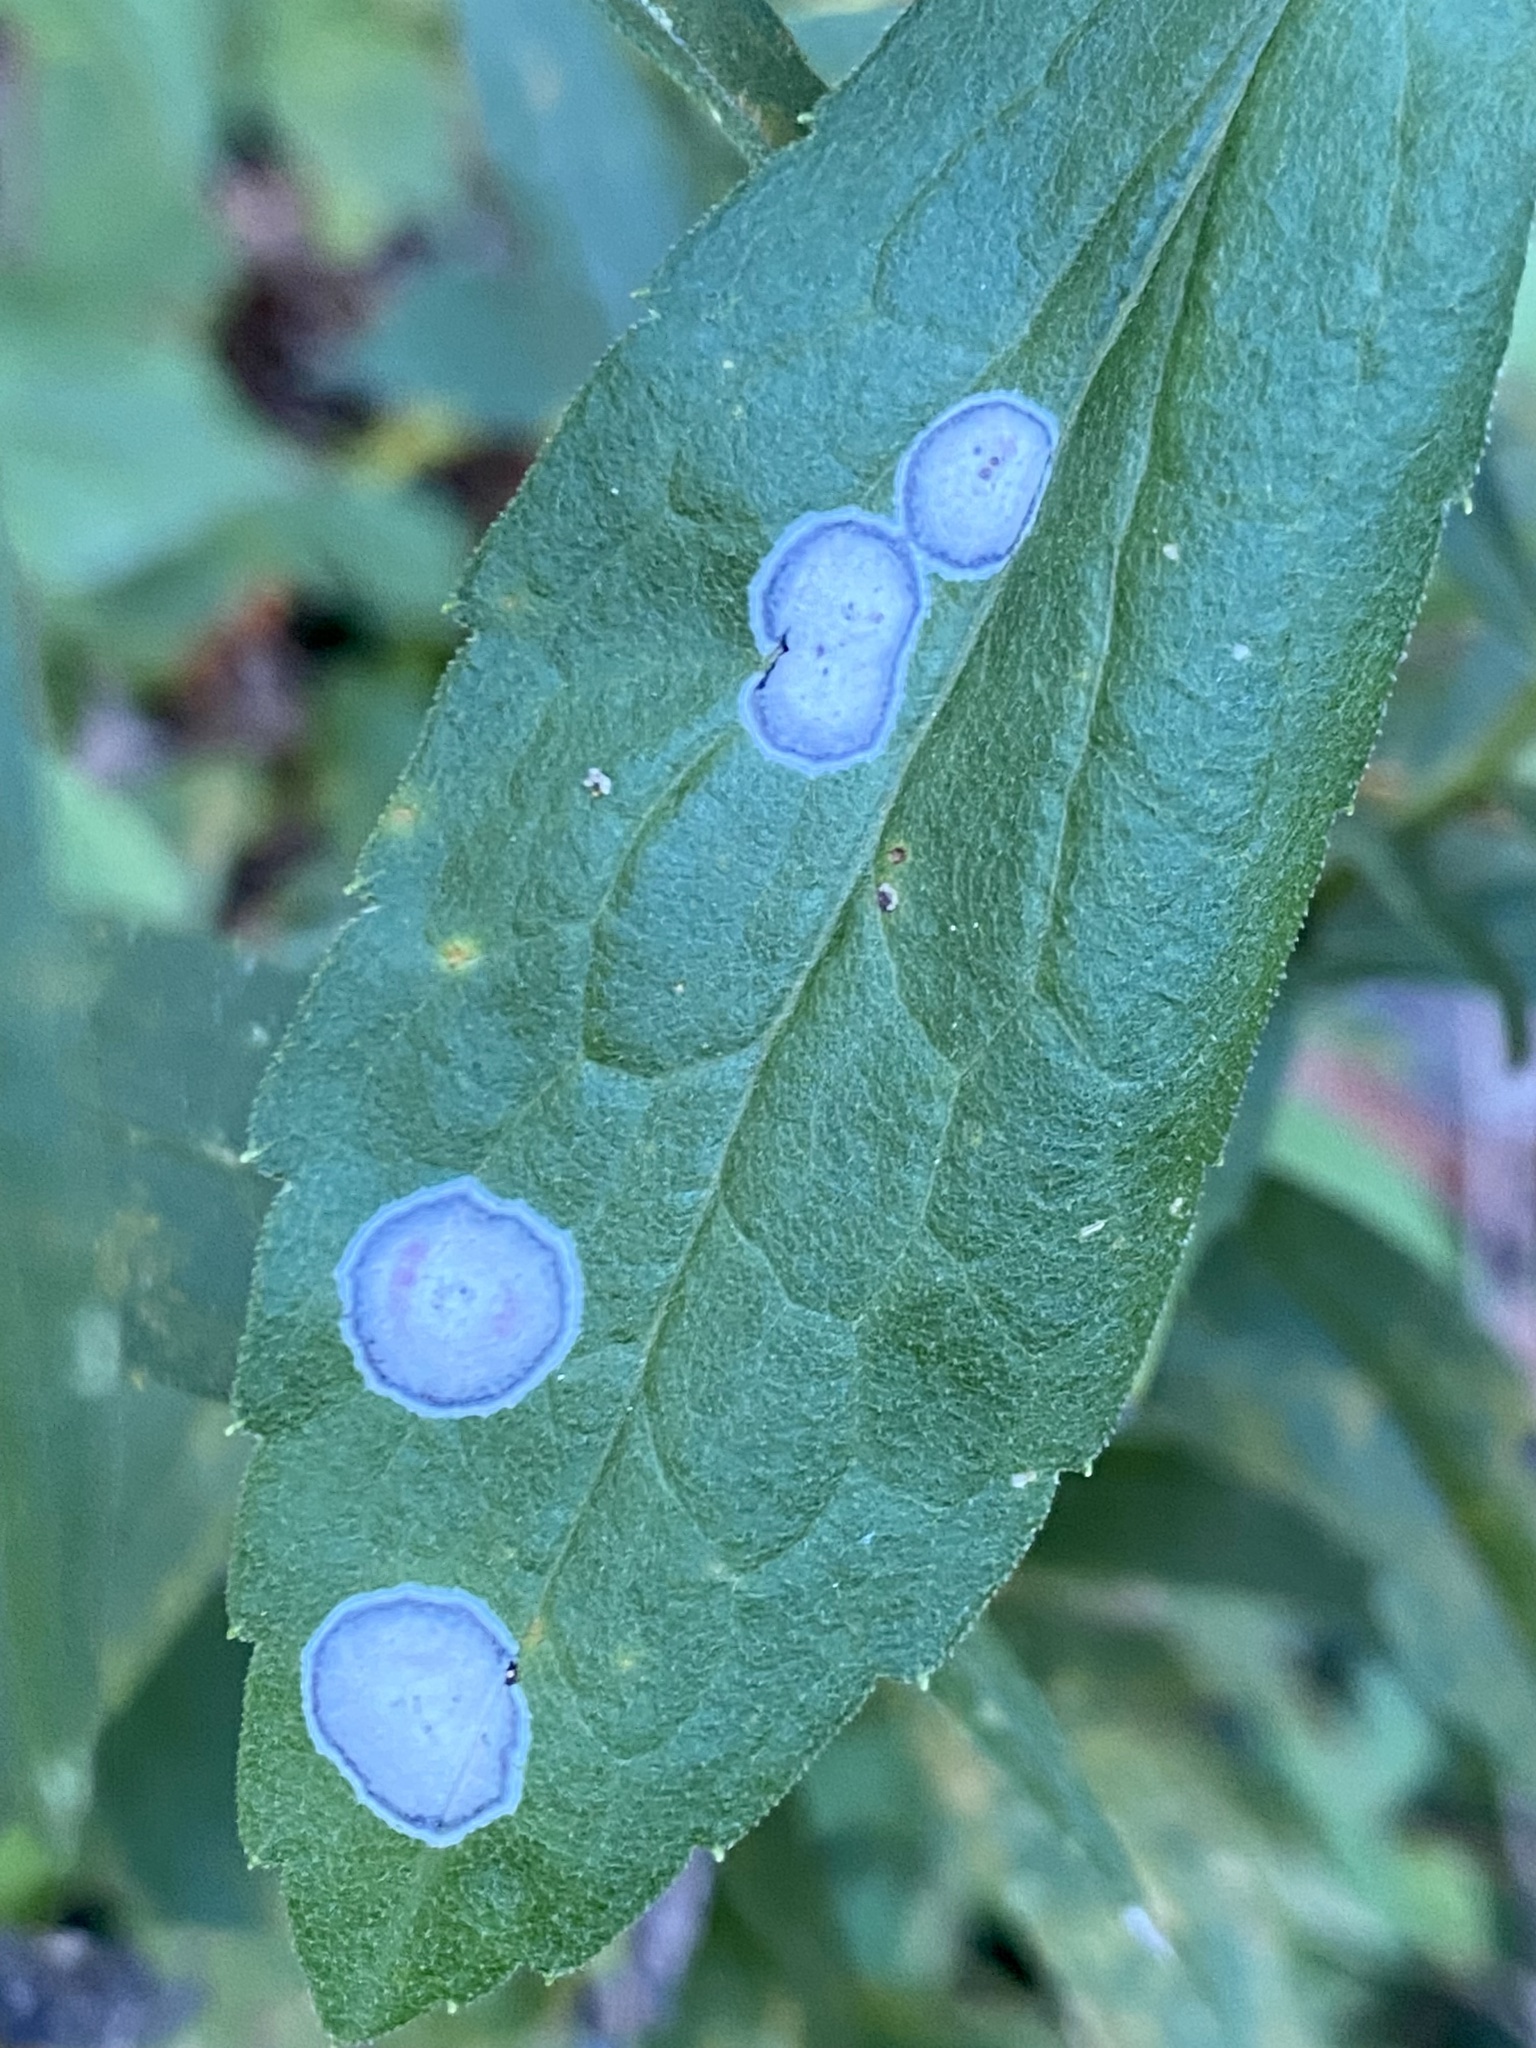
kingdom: Animalia
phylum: Arthropoda
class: Insecta
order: Diptera
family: Cecidomyiidae
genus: Asteromyia
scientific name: Asteromyia carbonifera
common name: Carbonifera goldenrod gall midge
